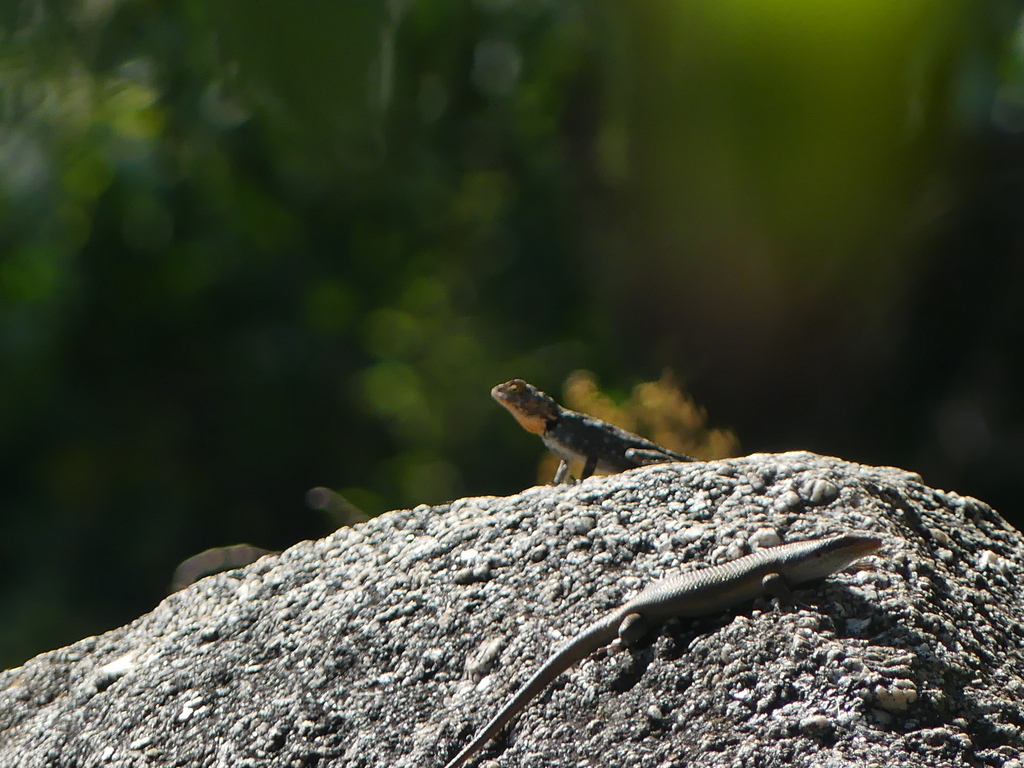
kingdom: Animalia
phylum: Chordata
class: Squamata
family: Scincidae
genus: Trachylepis
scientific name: Trachylepis wahlbergii
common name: Wahlberg’s striped skink
